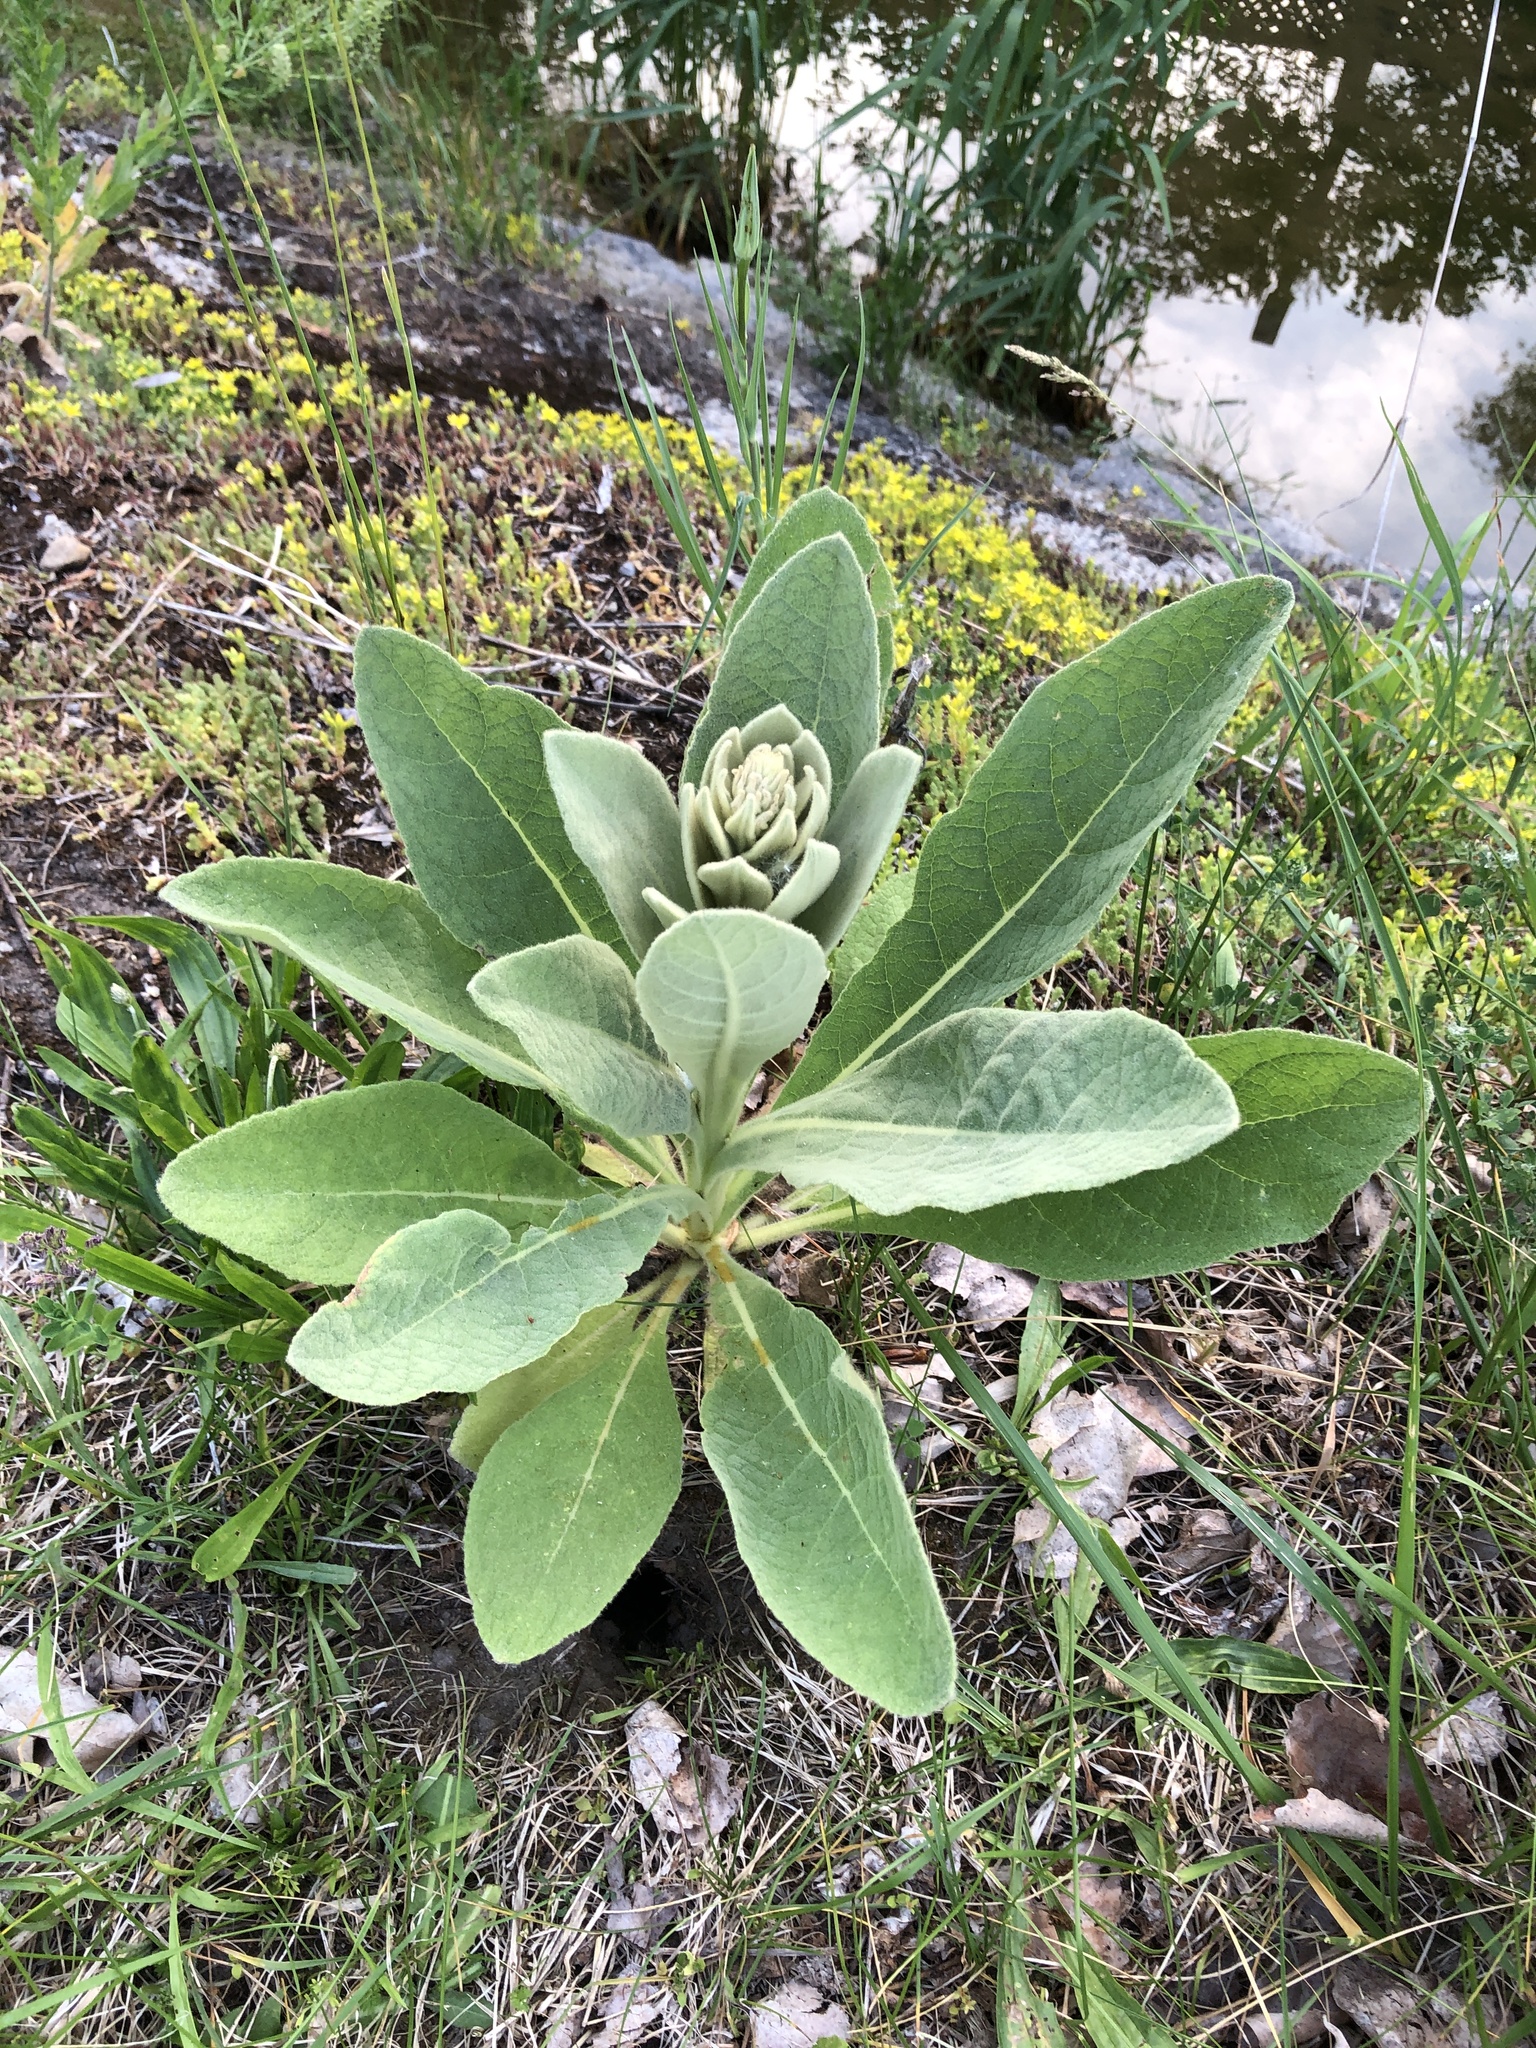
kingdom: Plantae
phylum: Tracheophyta
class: Magnoliopsida
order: Lamiales
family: Scrophulariaceae
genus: Verbascum
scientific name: Verbascum thapsus
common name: Common mullein
